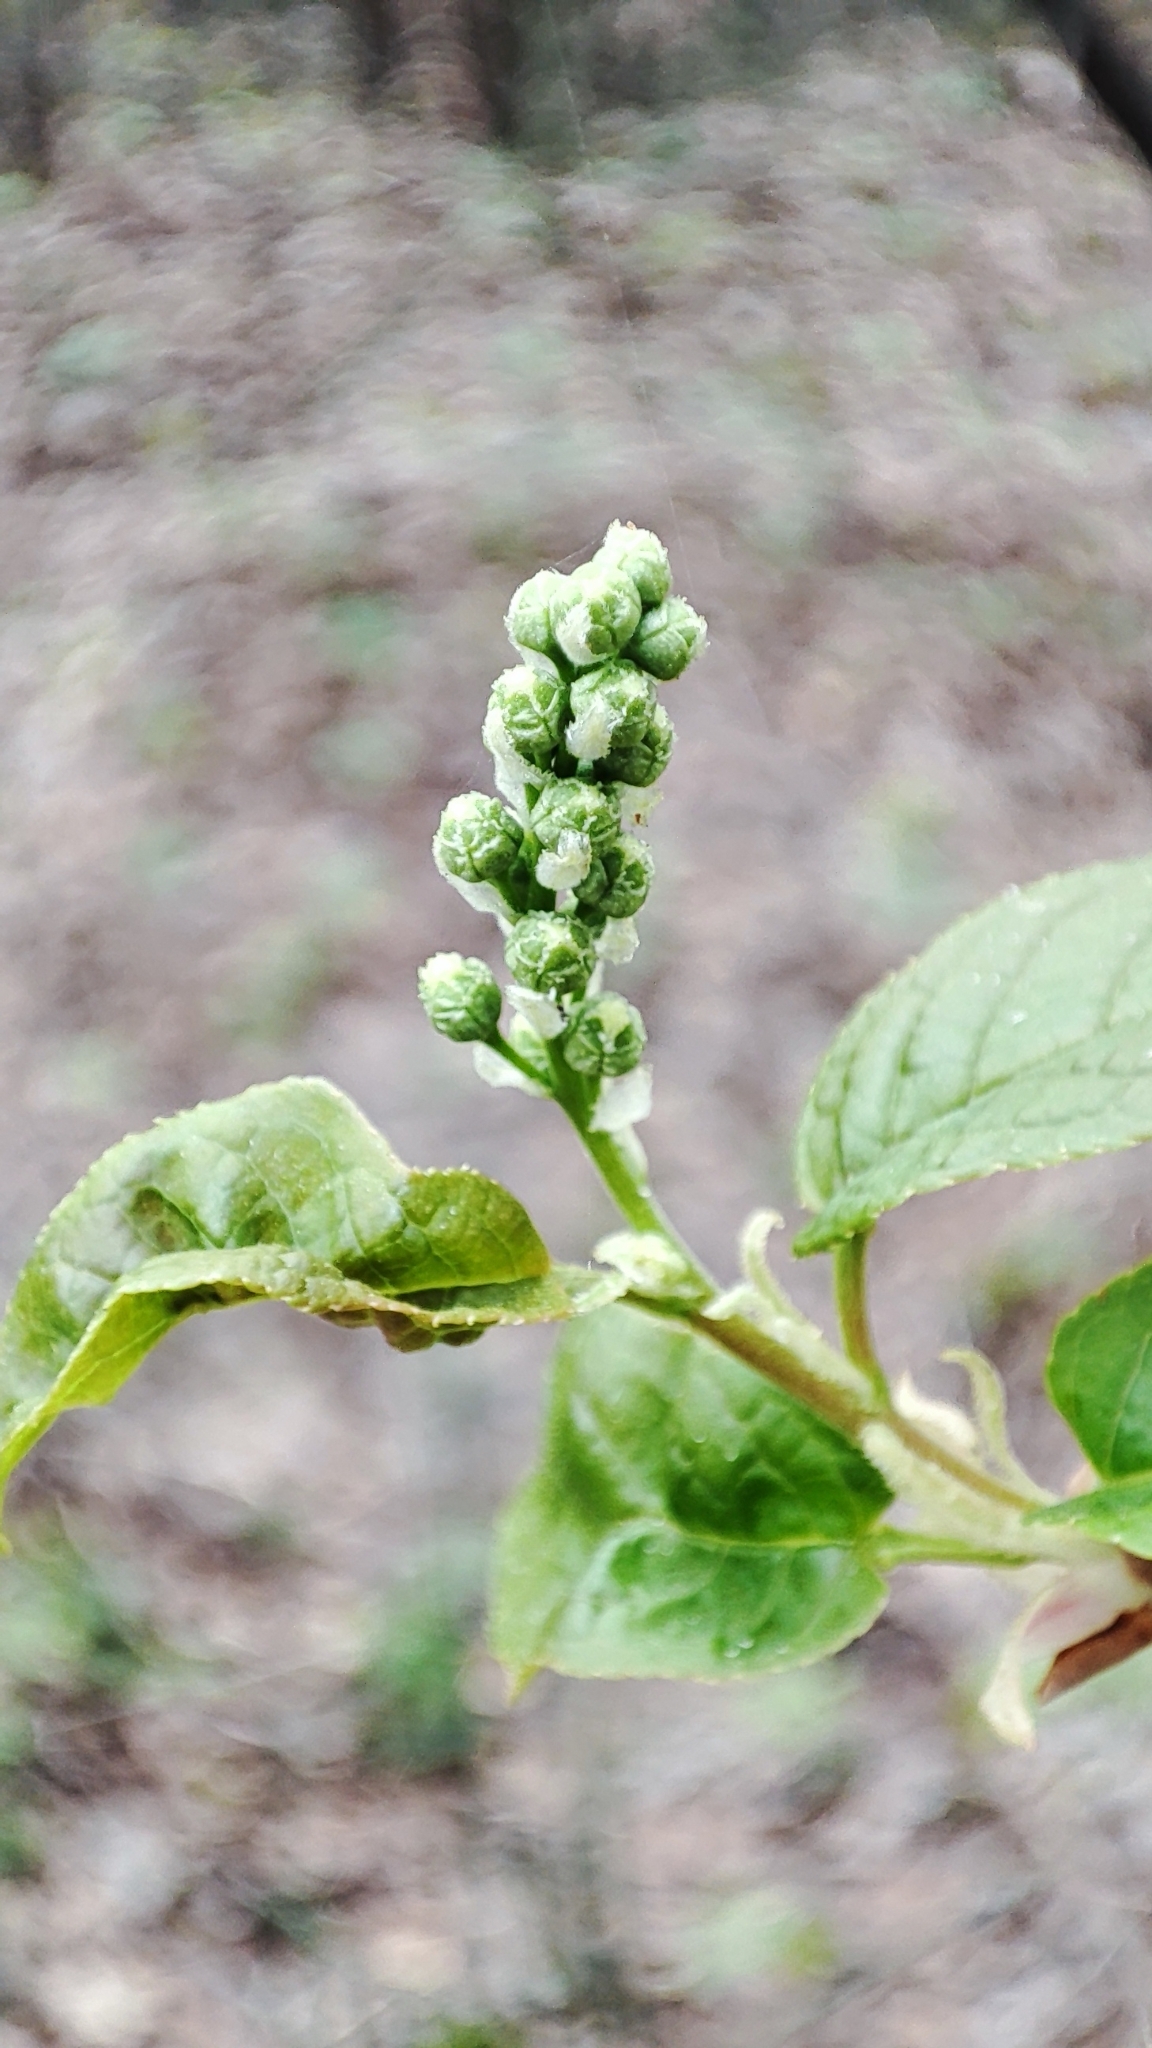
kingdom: Plantae
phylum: Tracheophyta
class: Magnoliopsida
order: Rosales
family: Rosaceae
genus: Prunus
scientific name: Prunus padus
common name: Bird cherry
